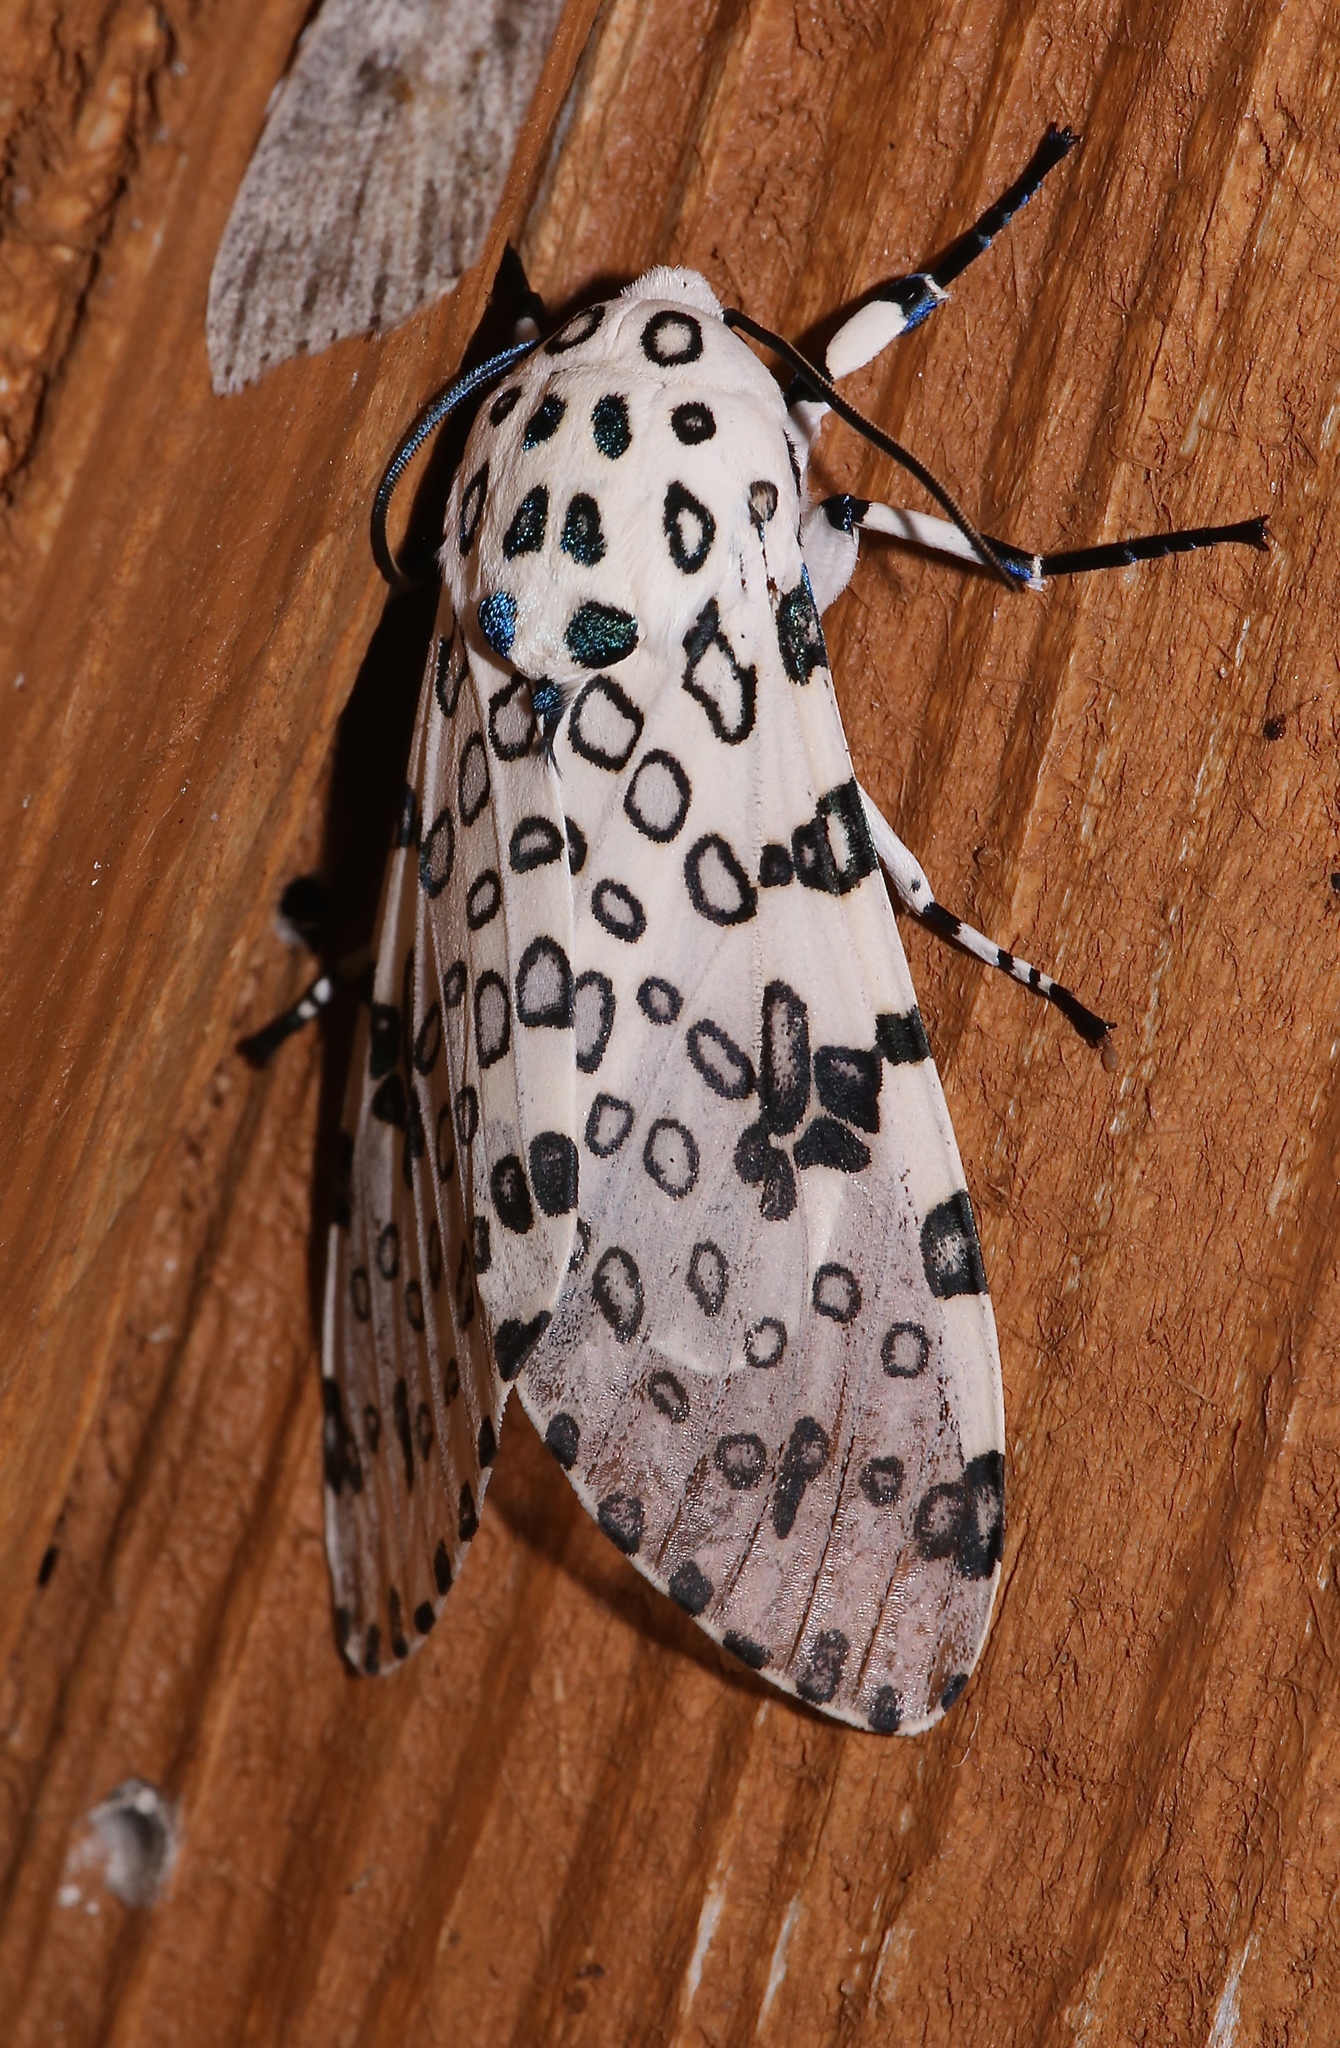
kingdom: Animalia
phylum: Arthropoda
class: Insecta
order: Lepidoptera
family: Erebidae
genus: Hypercompe
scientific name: Hypercompe scribonia
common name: Giant leopard moth
